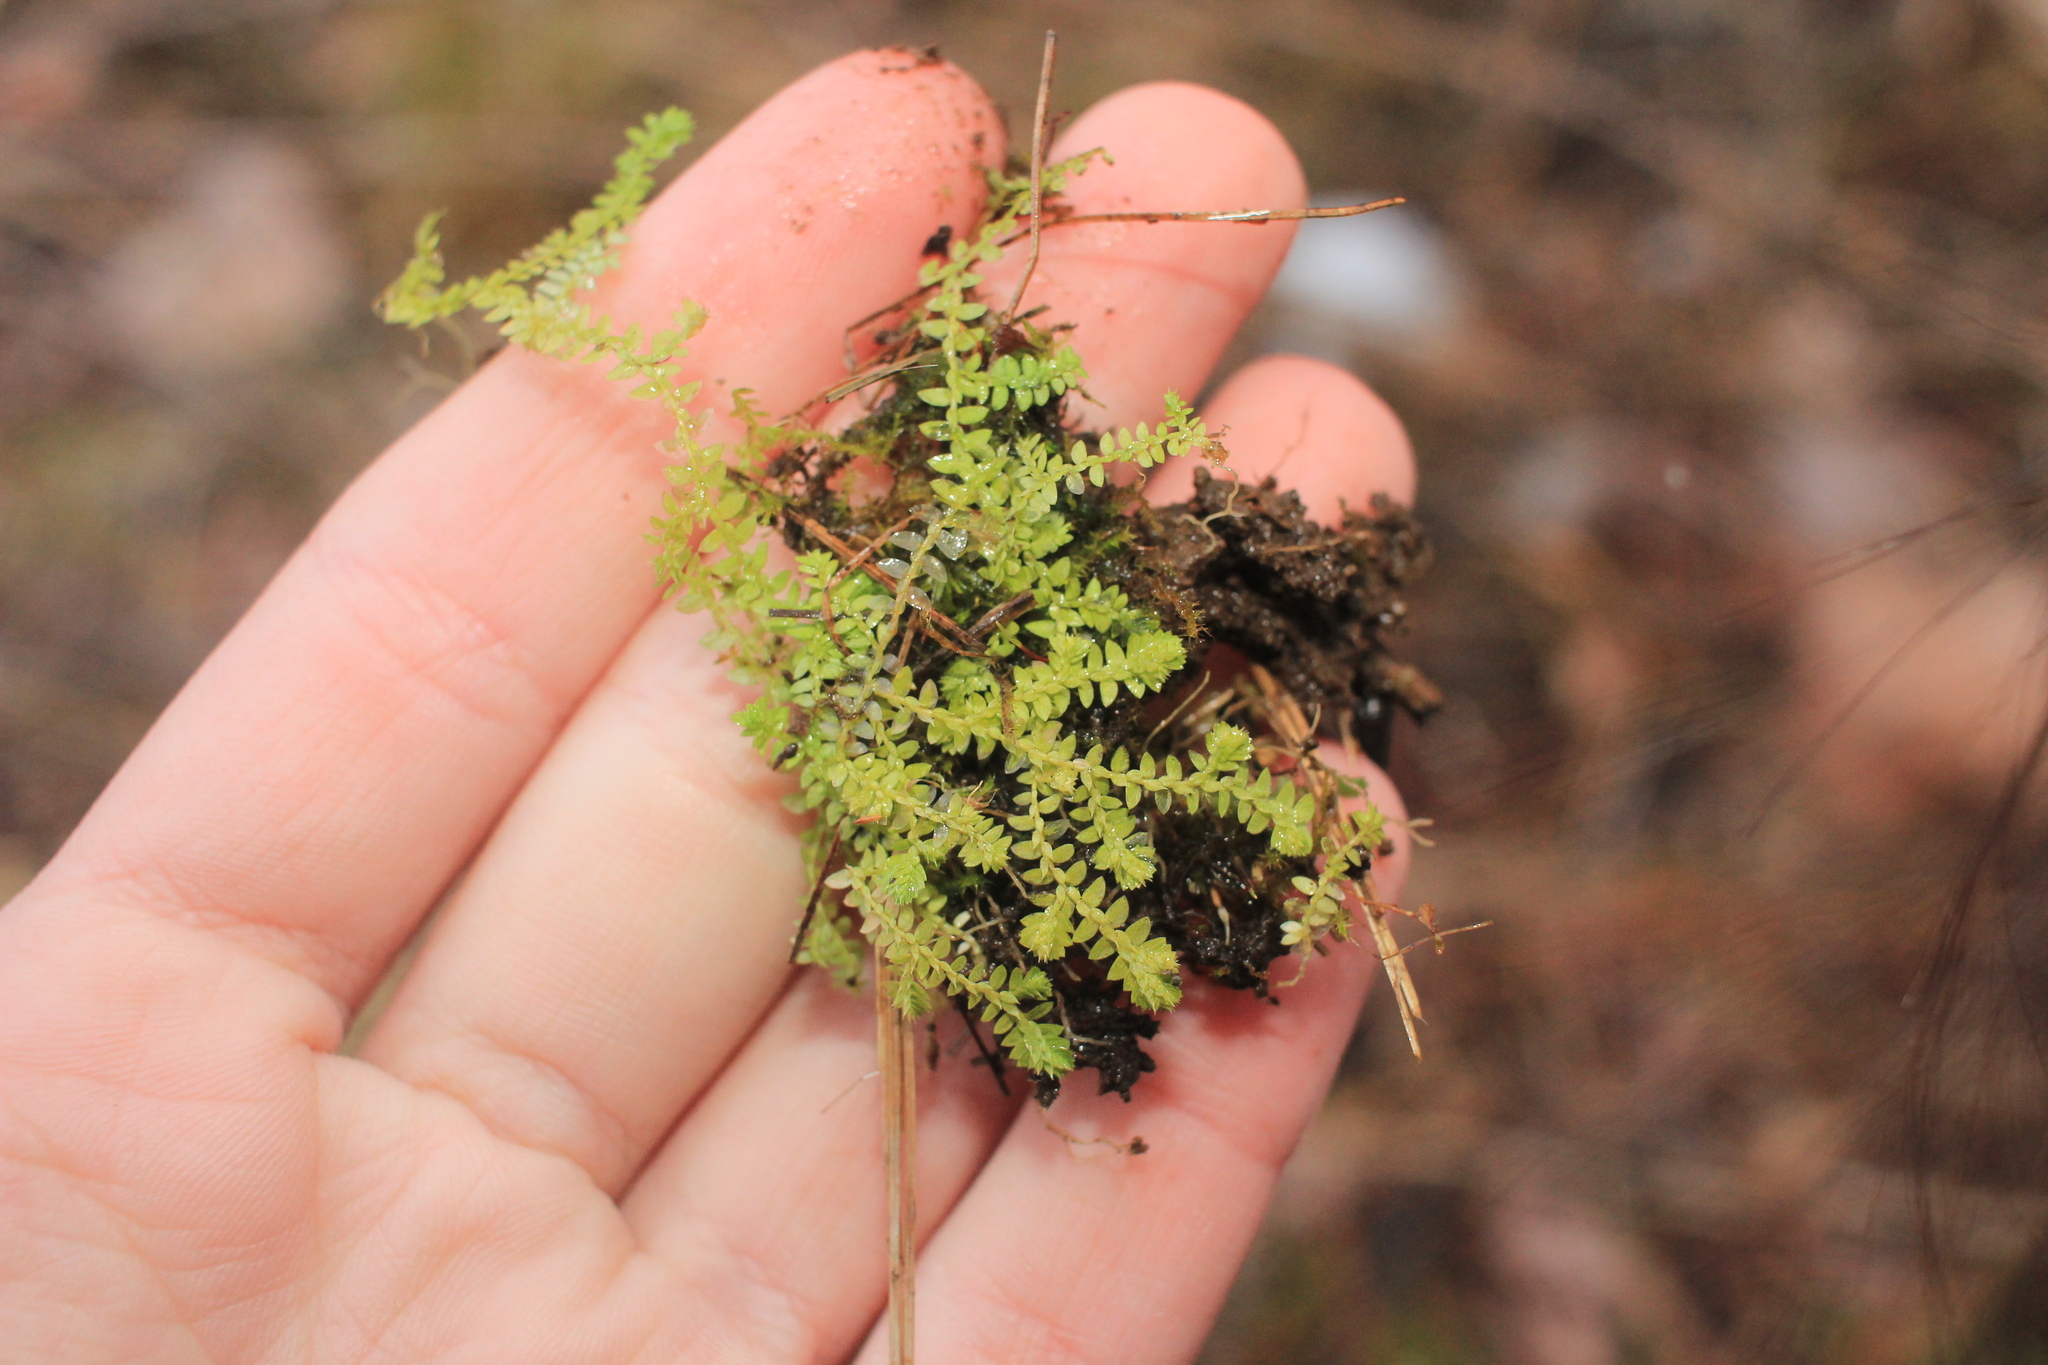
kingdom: Plantae
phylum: Tracheophyta
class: Lycopodiopsida
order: Selaginellales
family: Selaginellaceae
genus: Selaginella
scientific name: Selaginella apoda
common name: Creeping spikemoss
